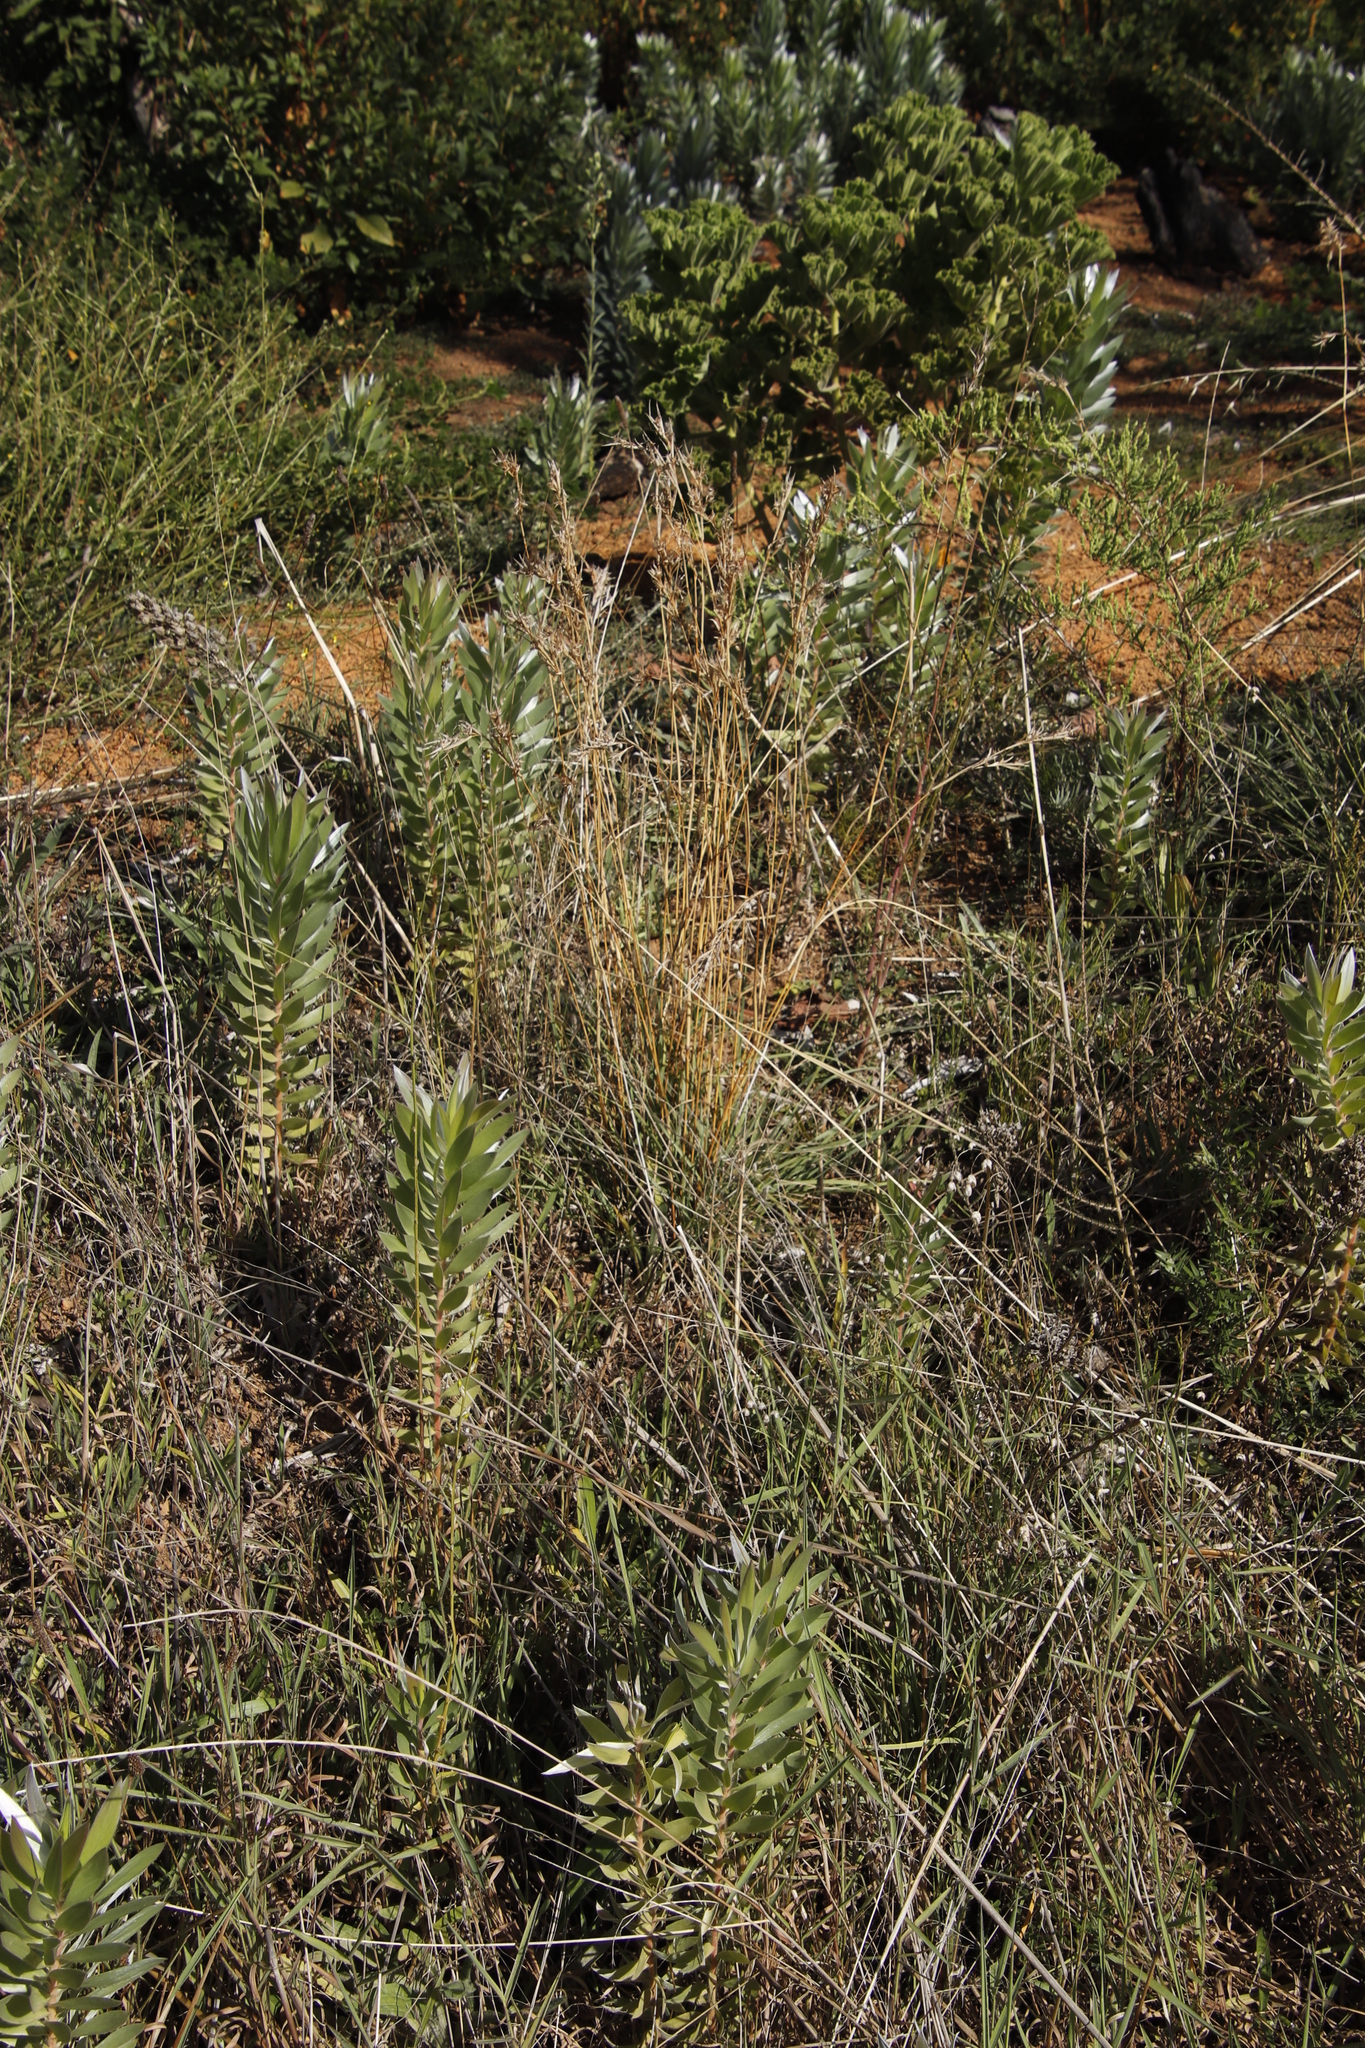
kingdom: Plantae
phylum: Tracheophyta
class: Liliopsida
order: Poales
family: Poaceae
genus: Hyparrhenia
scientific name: Hyparrhenia hirta
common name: Thatching grass
